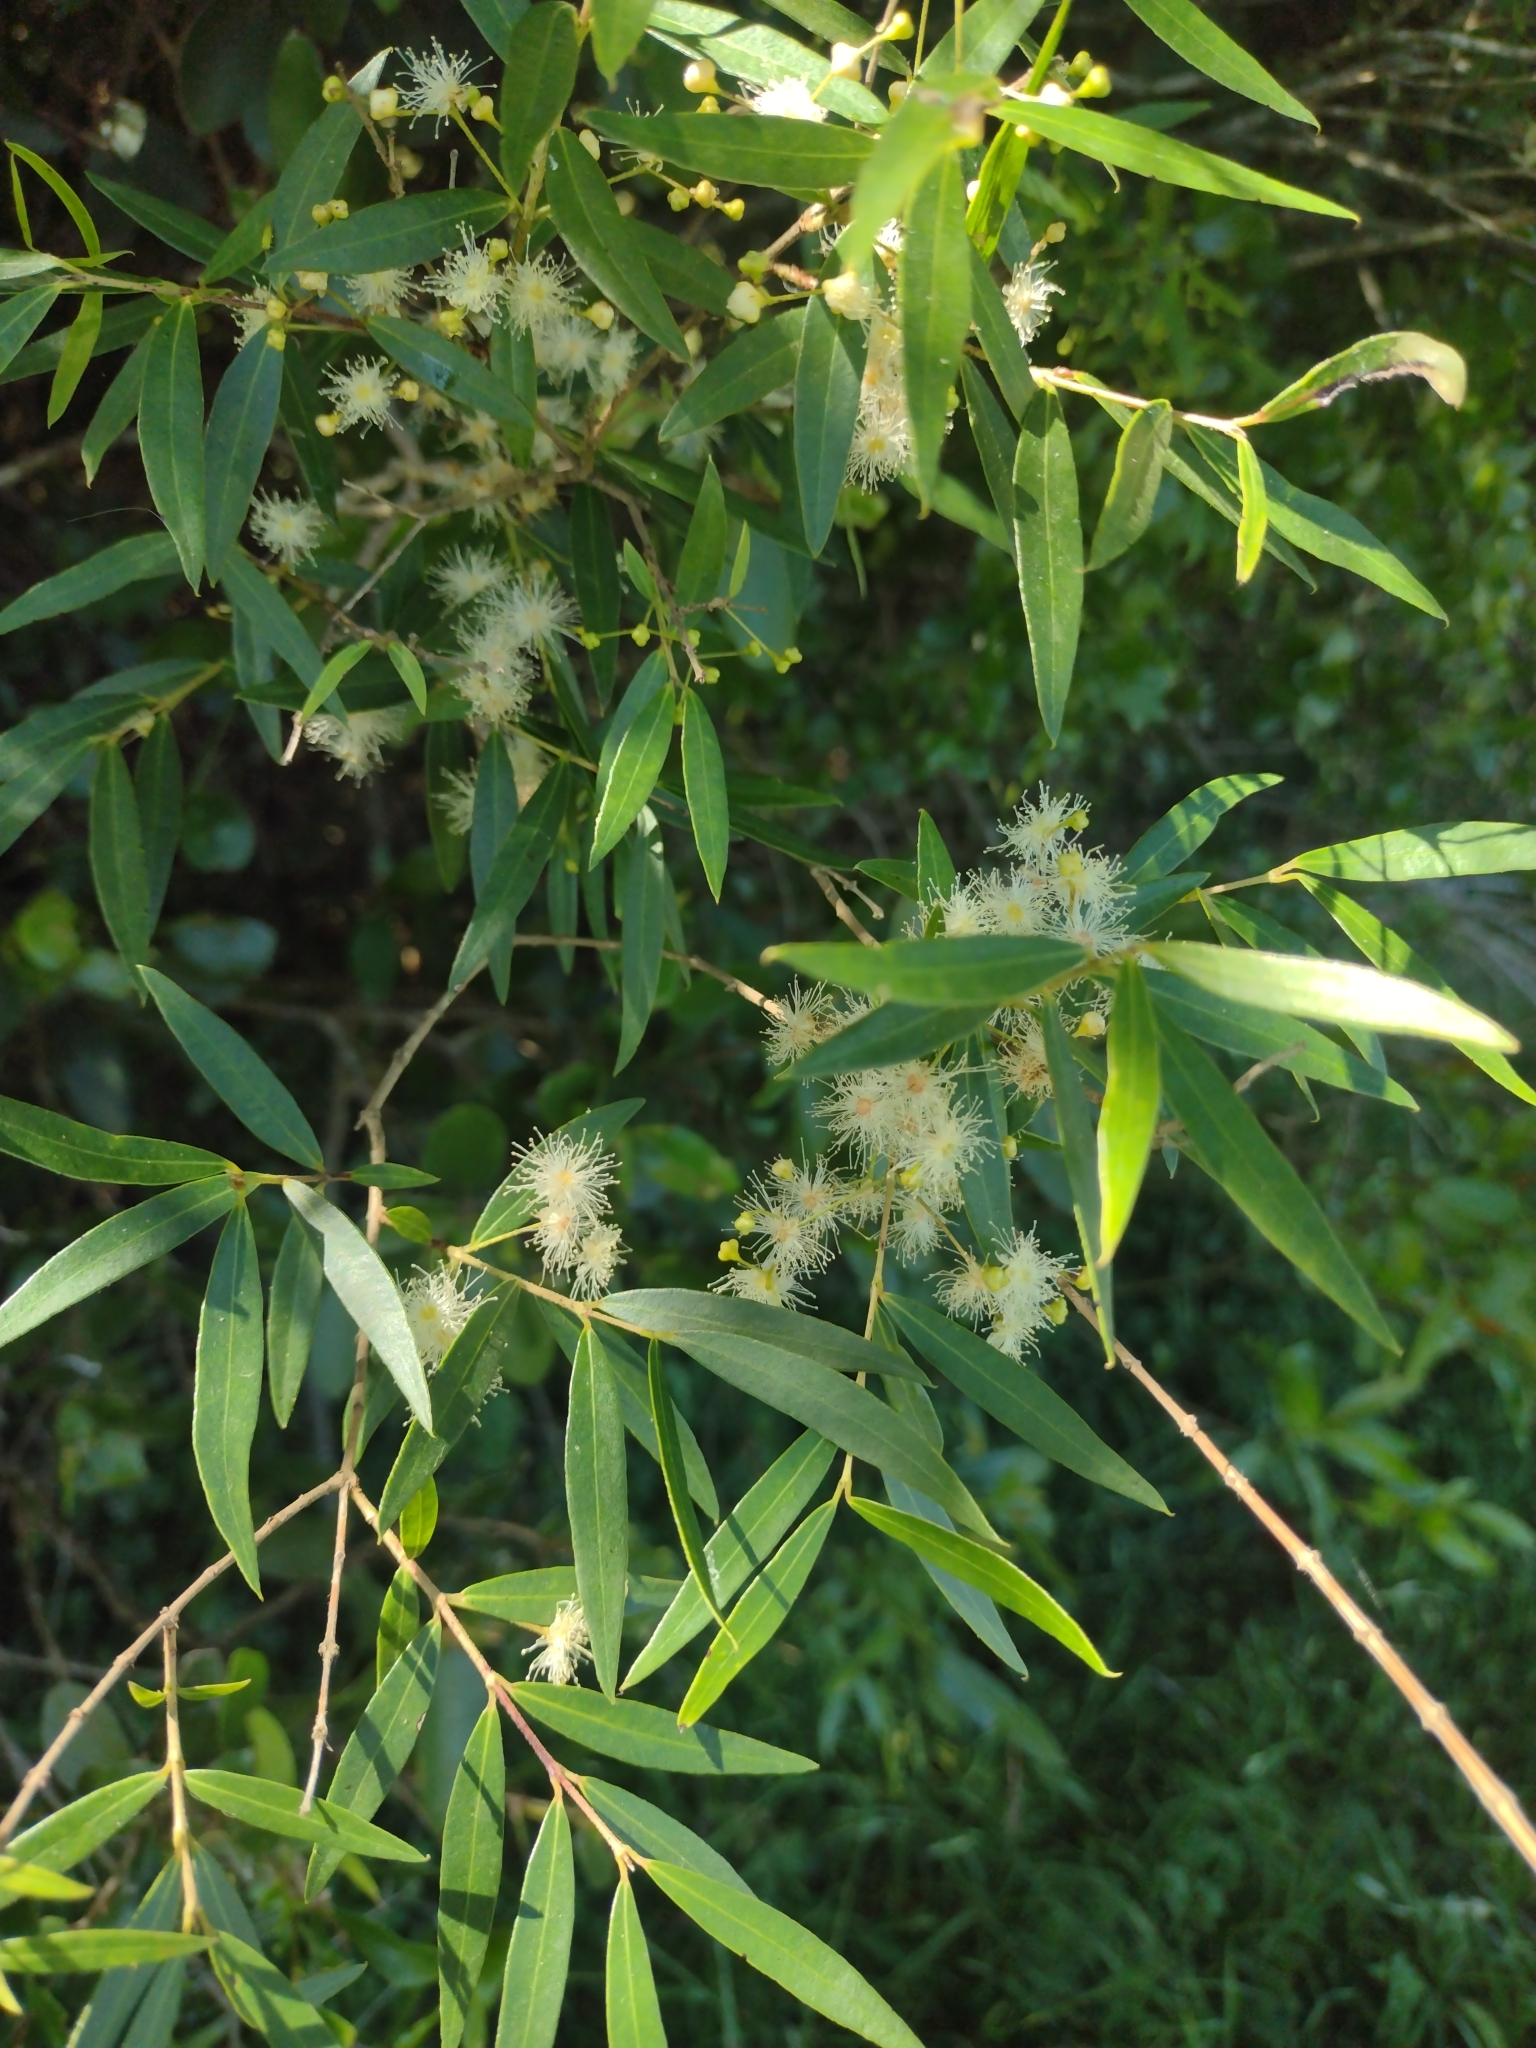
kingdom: Plantae
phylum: Tracheophyta
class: Magnoliopsida
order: Myrtales
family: Myrtaceae
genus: Blepharocalyx
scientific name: Blepharocalyx salicifolius
